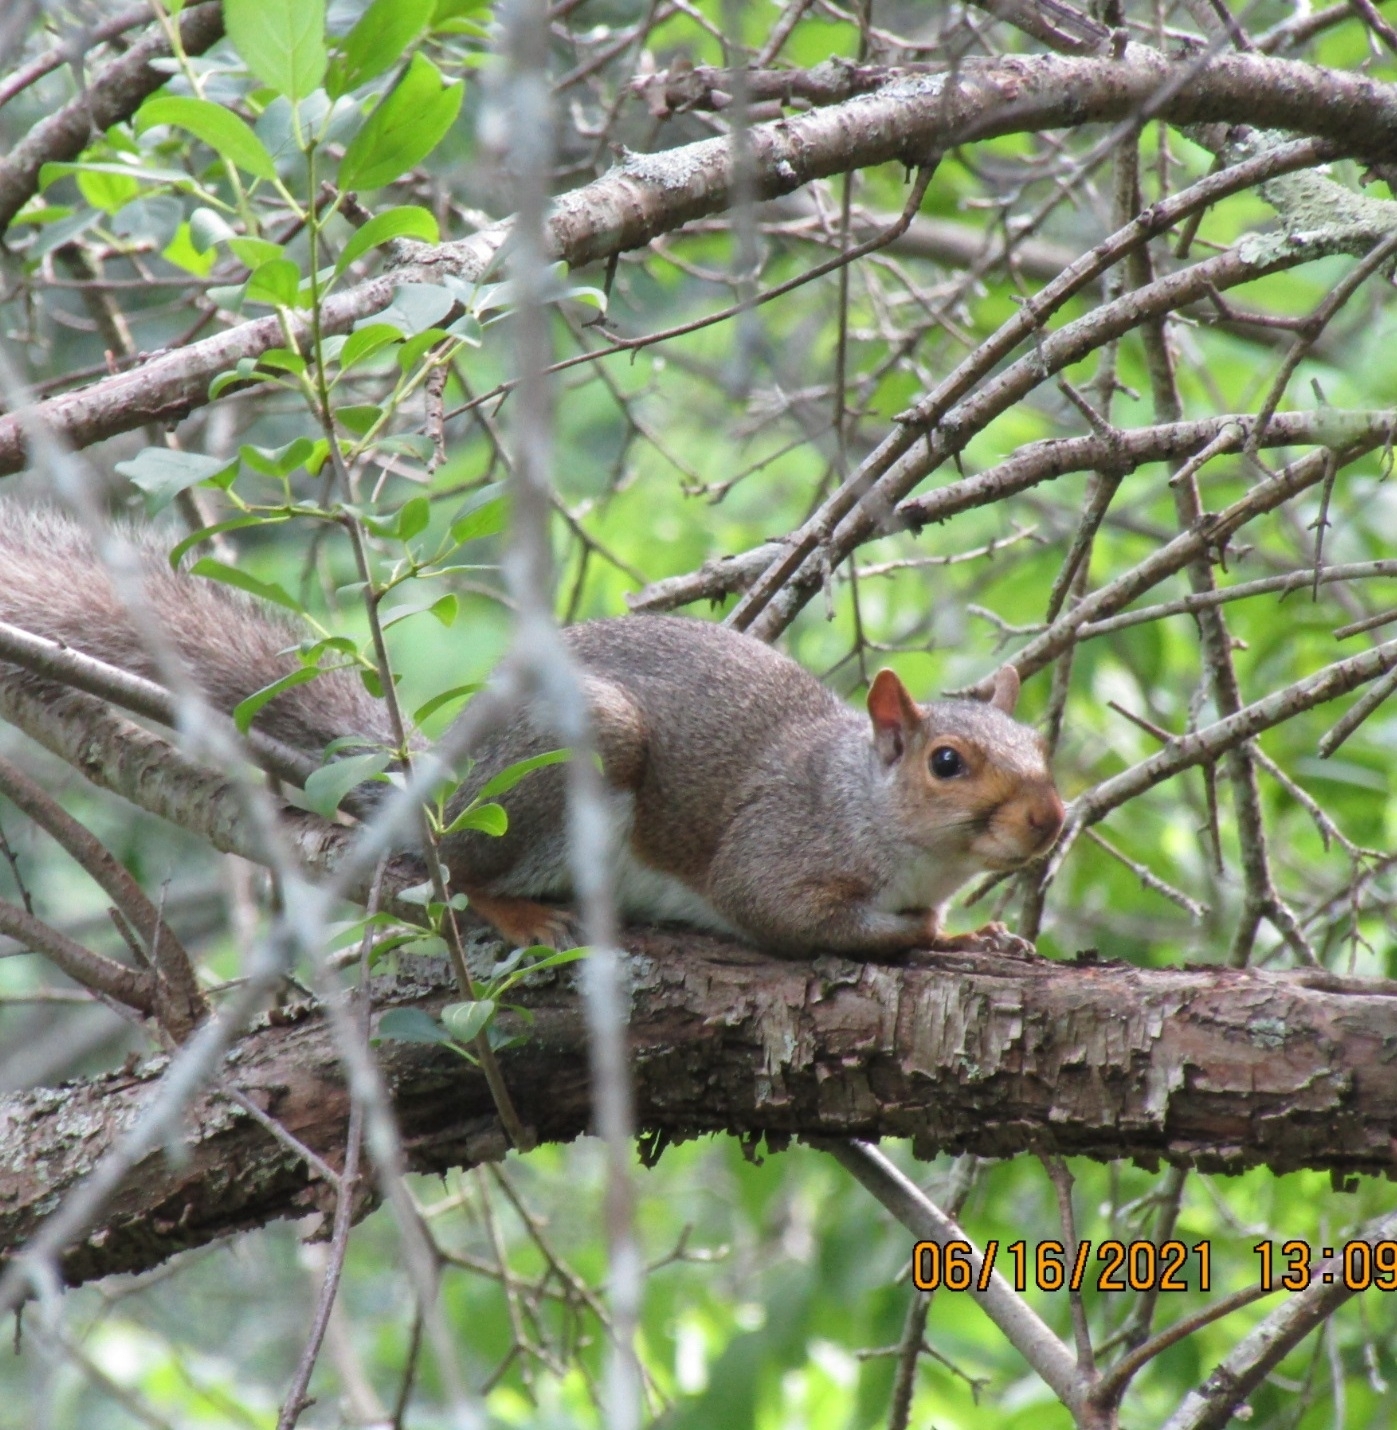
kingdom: Animalia
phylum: Chordata
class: Mammalia
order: Rodentia
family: Sciuridae
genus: Sciurus
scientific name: Sciurus carolinensis
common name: Eastern gray squirrel
